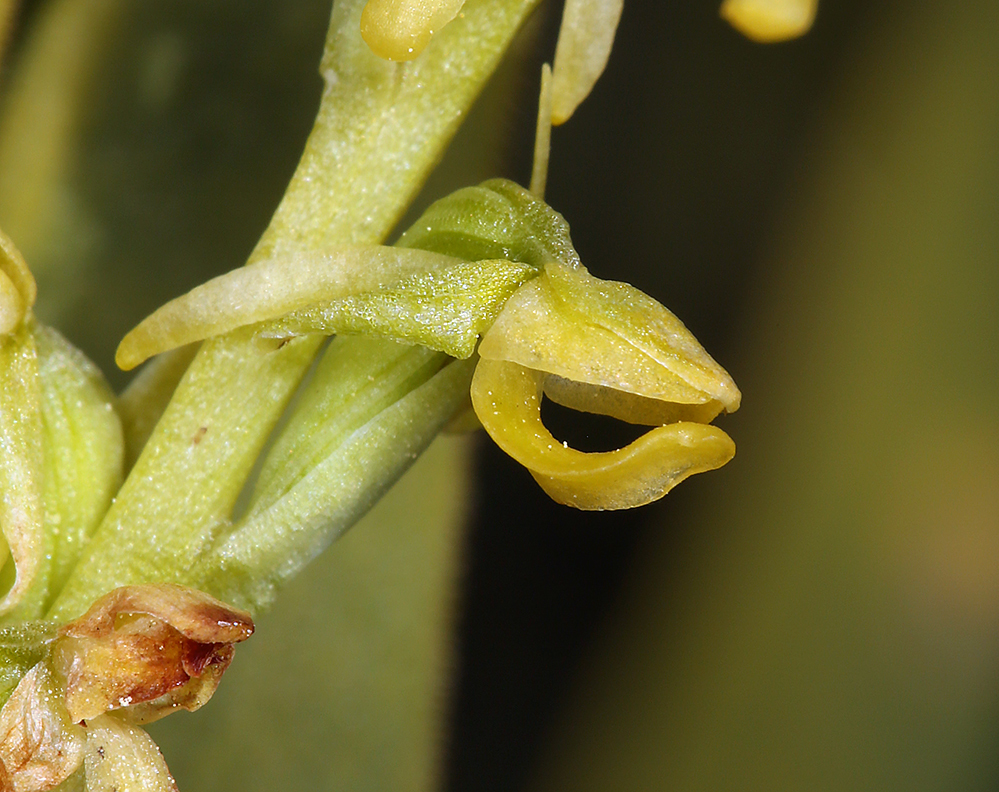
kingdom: Plantae
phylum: Tracheophyta
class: Liliopsida
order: Asparagales
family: Orchidaceae
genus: Platanthera
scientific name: Platanthera tescamnis
